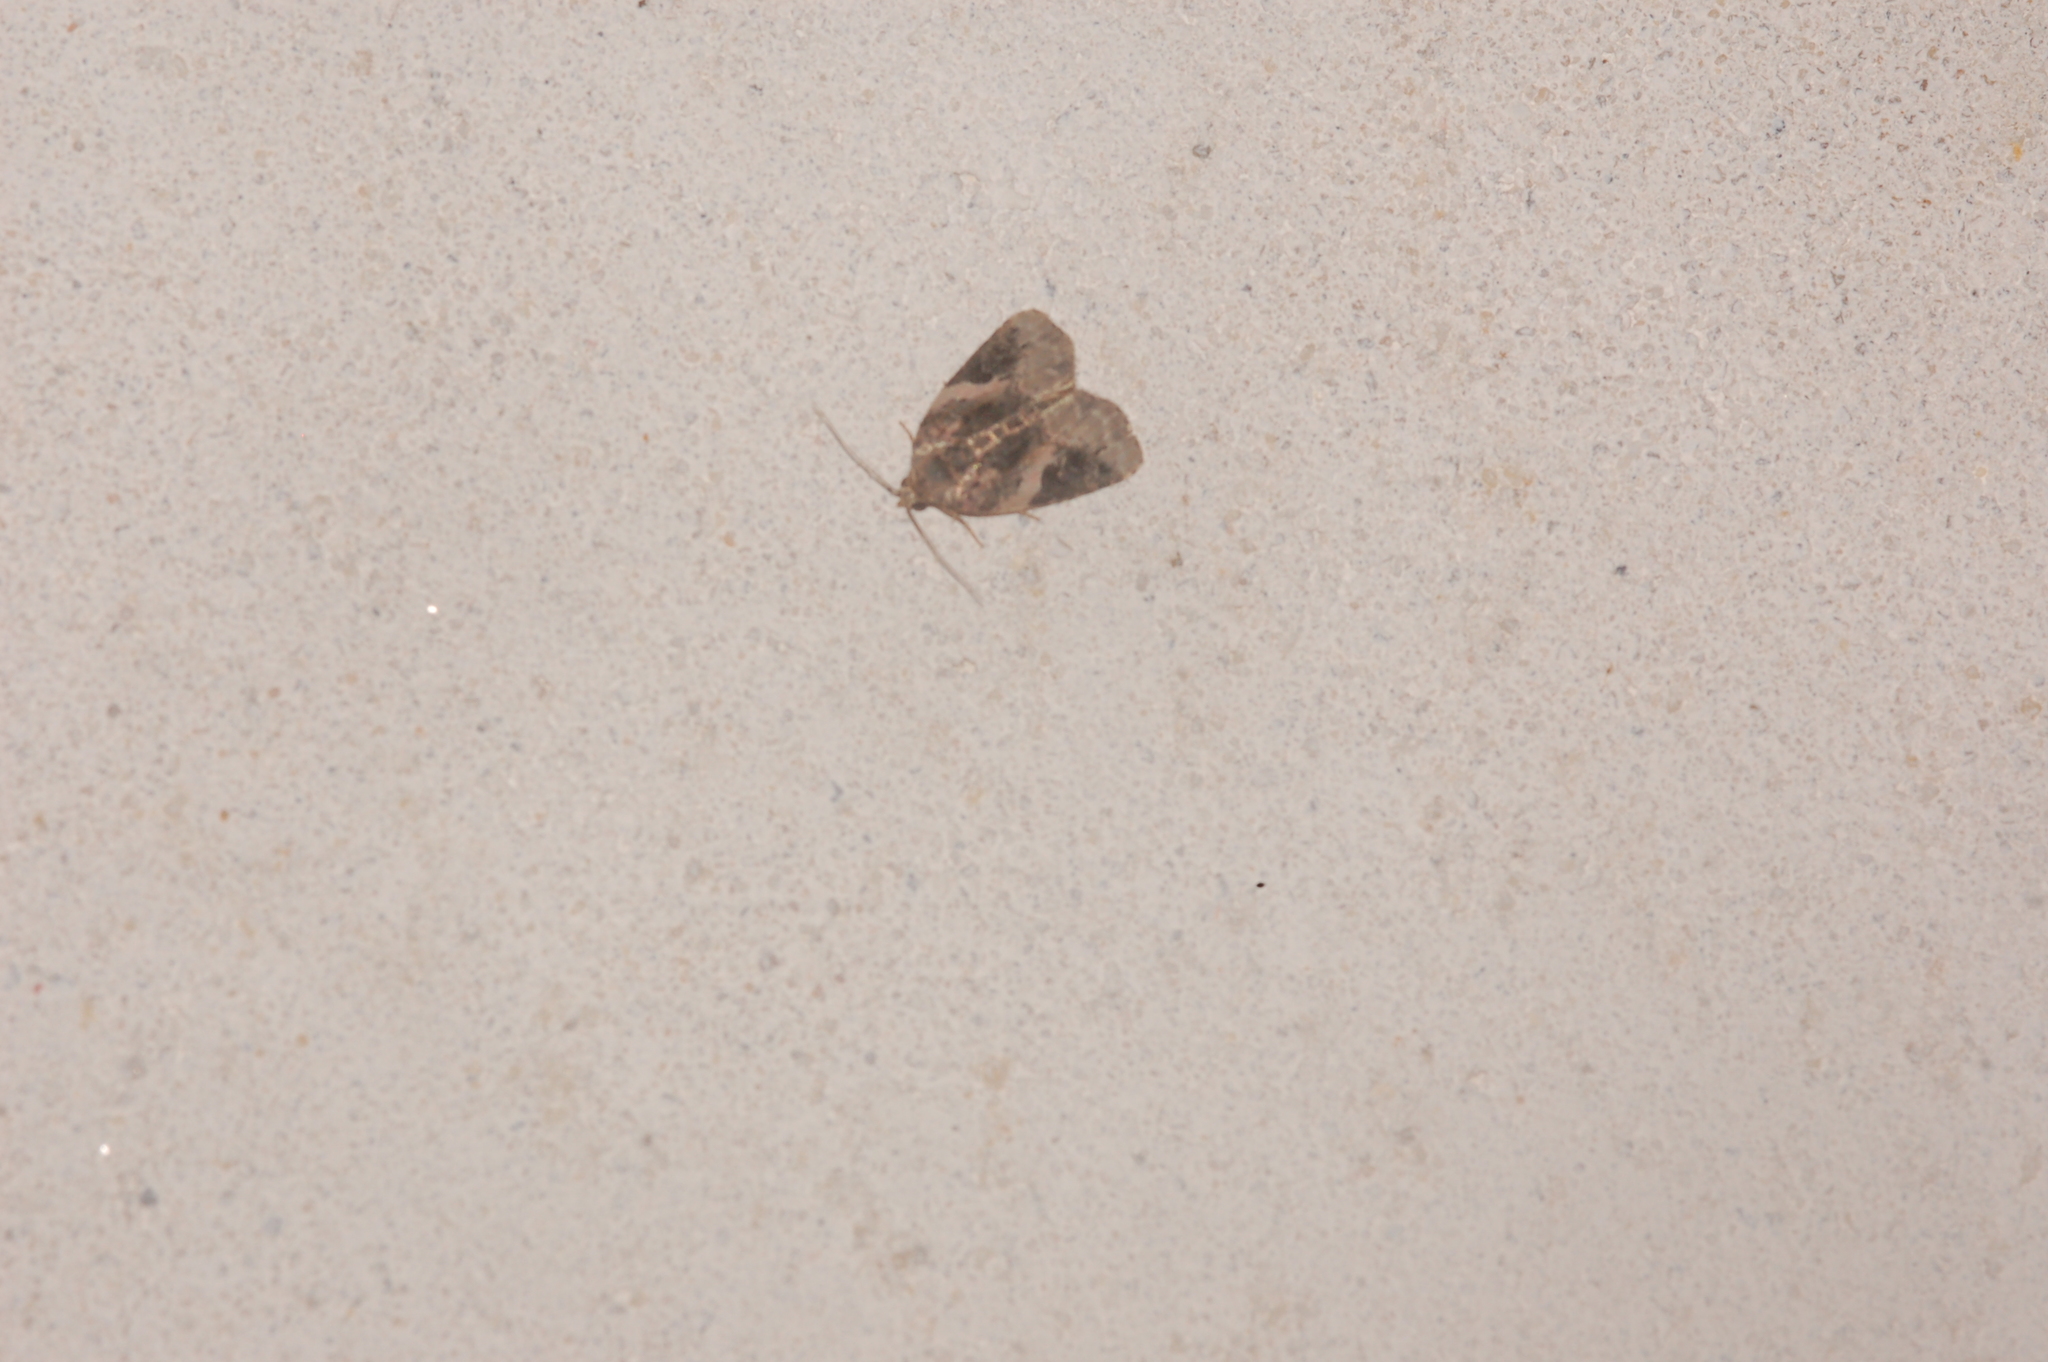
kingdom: Animalia
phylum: Arthropoda
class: Insecta
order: Lepidoptera
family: Noctuidae
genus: Pseudeustrotia
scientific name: Pseudeustrotia carneola
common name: Pink-barred lithacodia moth
